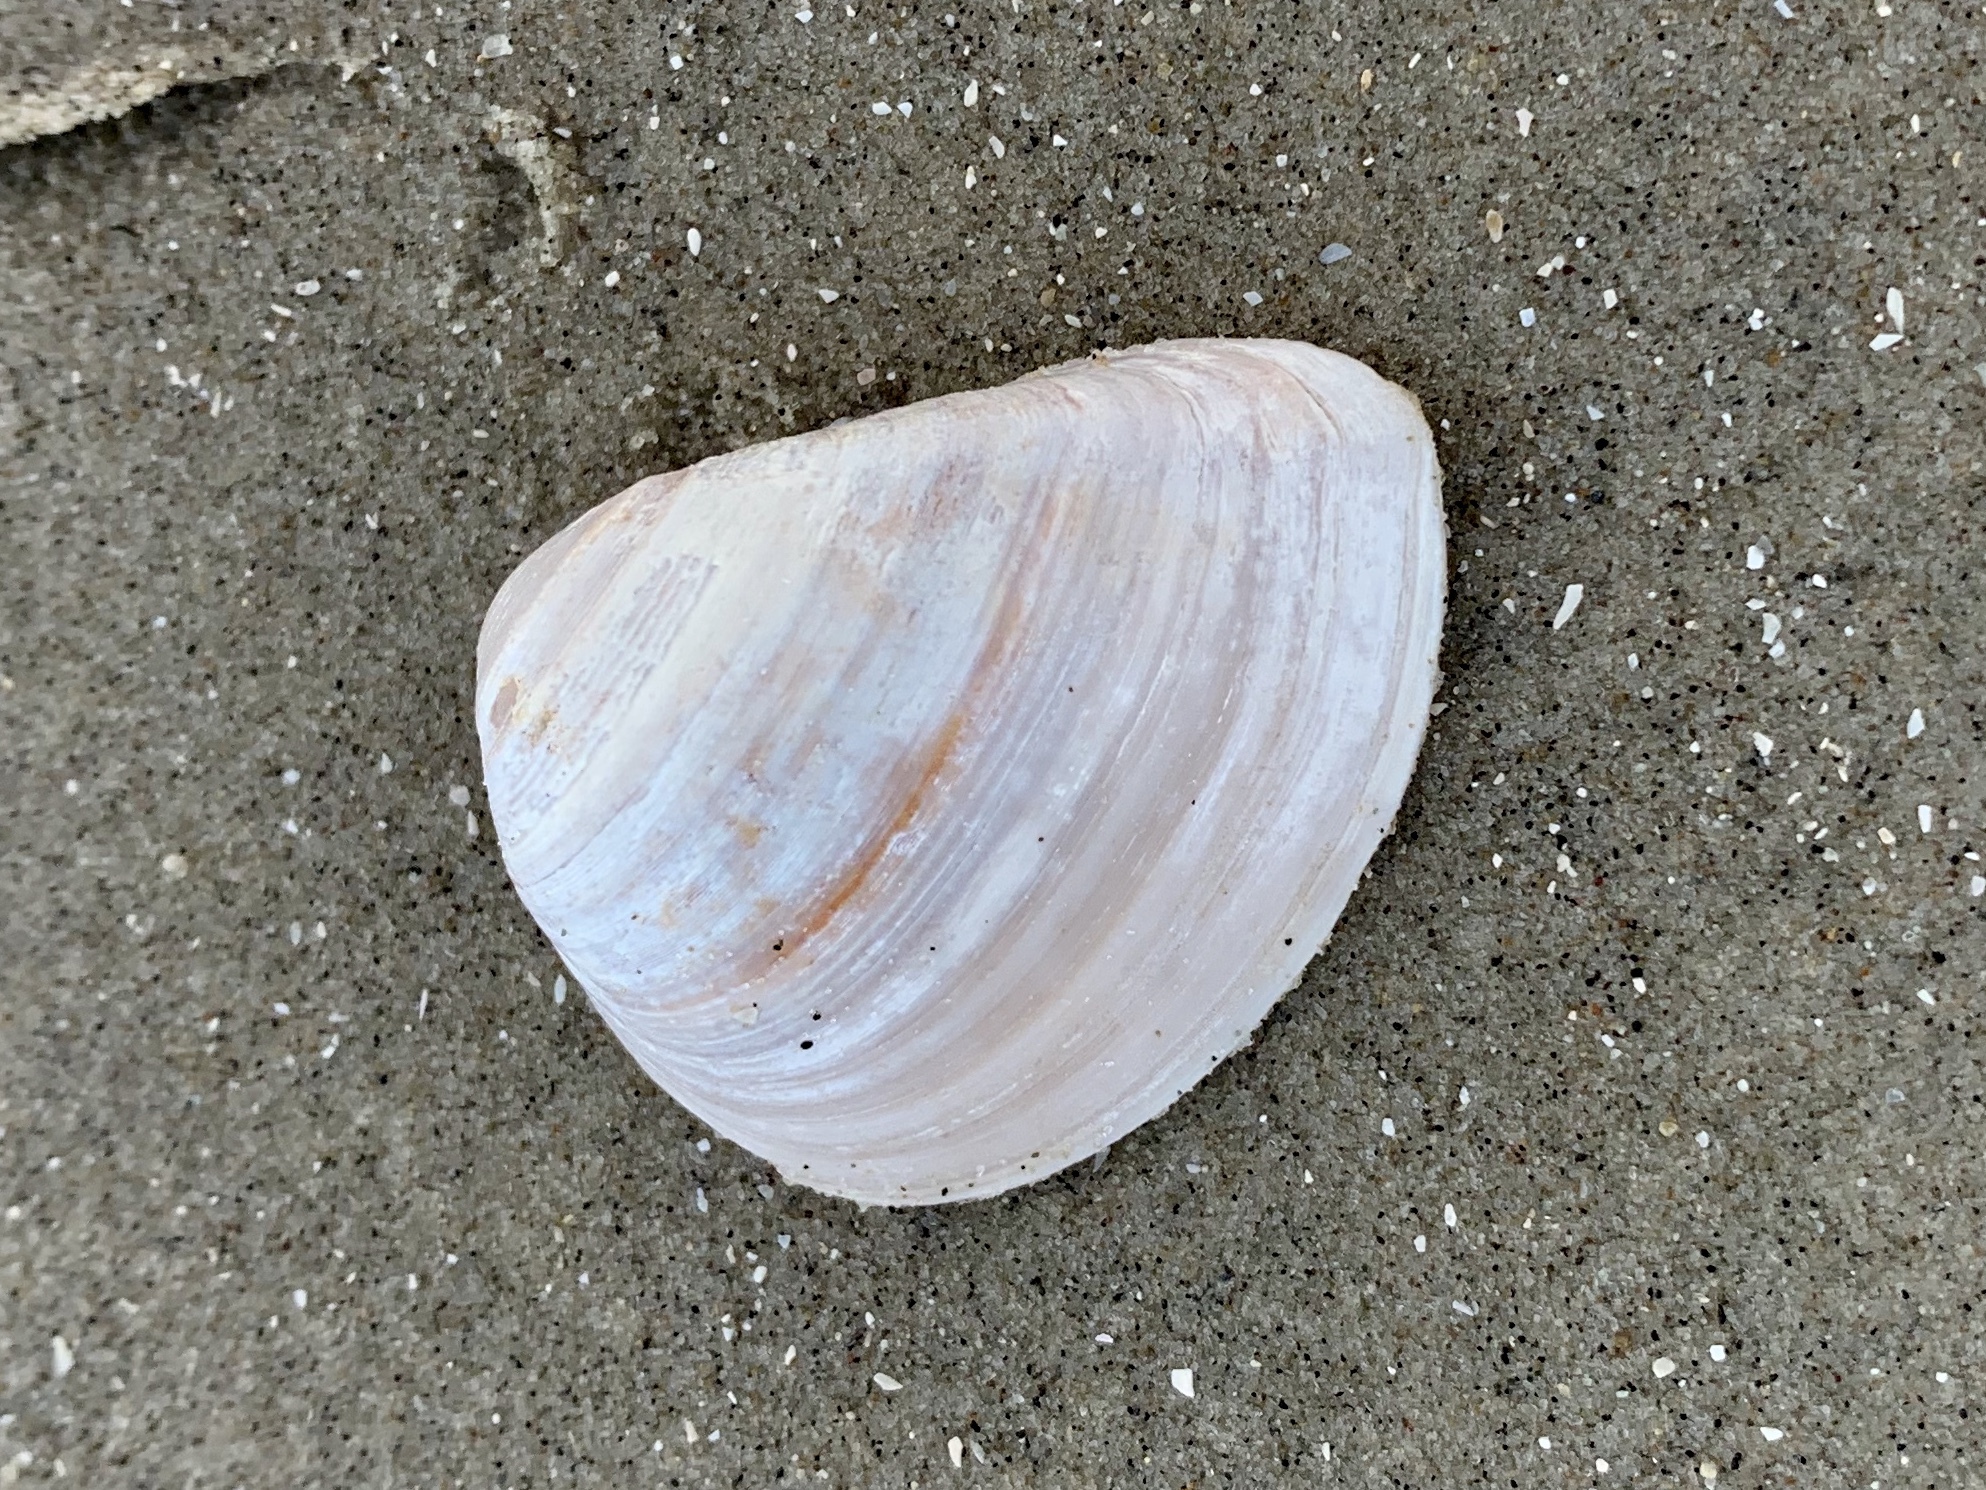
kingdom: Animalia
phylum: Mollusca
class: Bivalvia
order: Venerida
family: Mactridae
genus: Rangia
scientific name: Rangia cuneata
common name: Atlantic rangia
